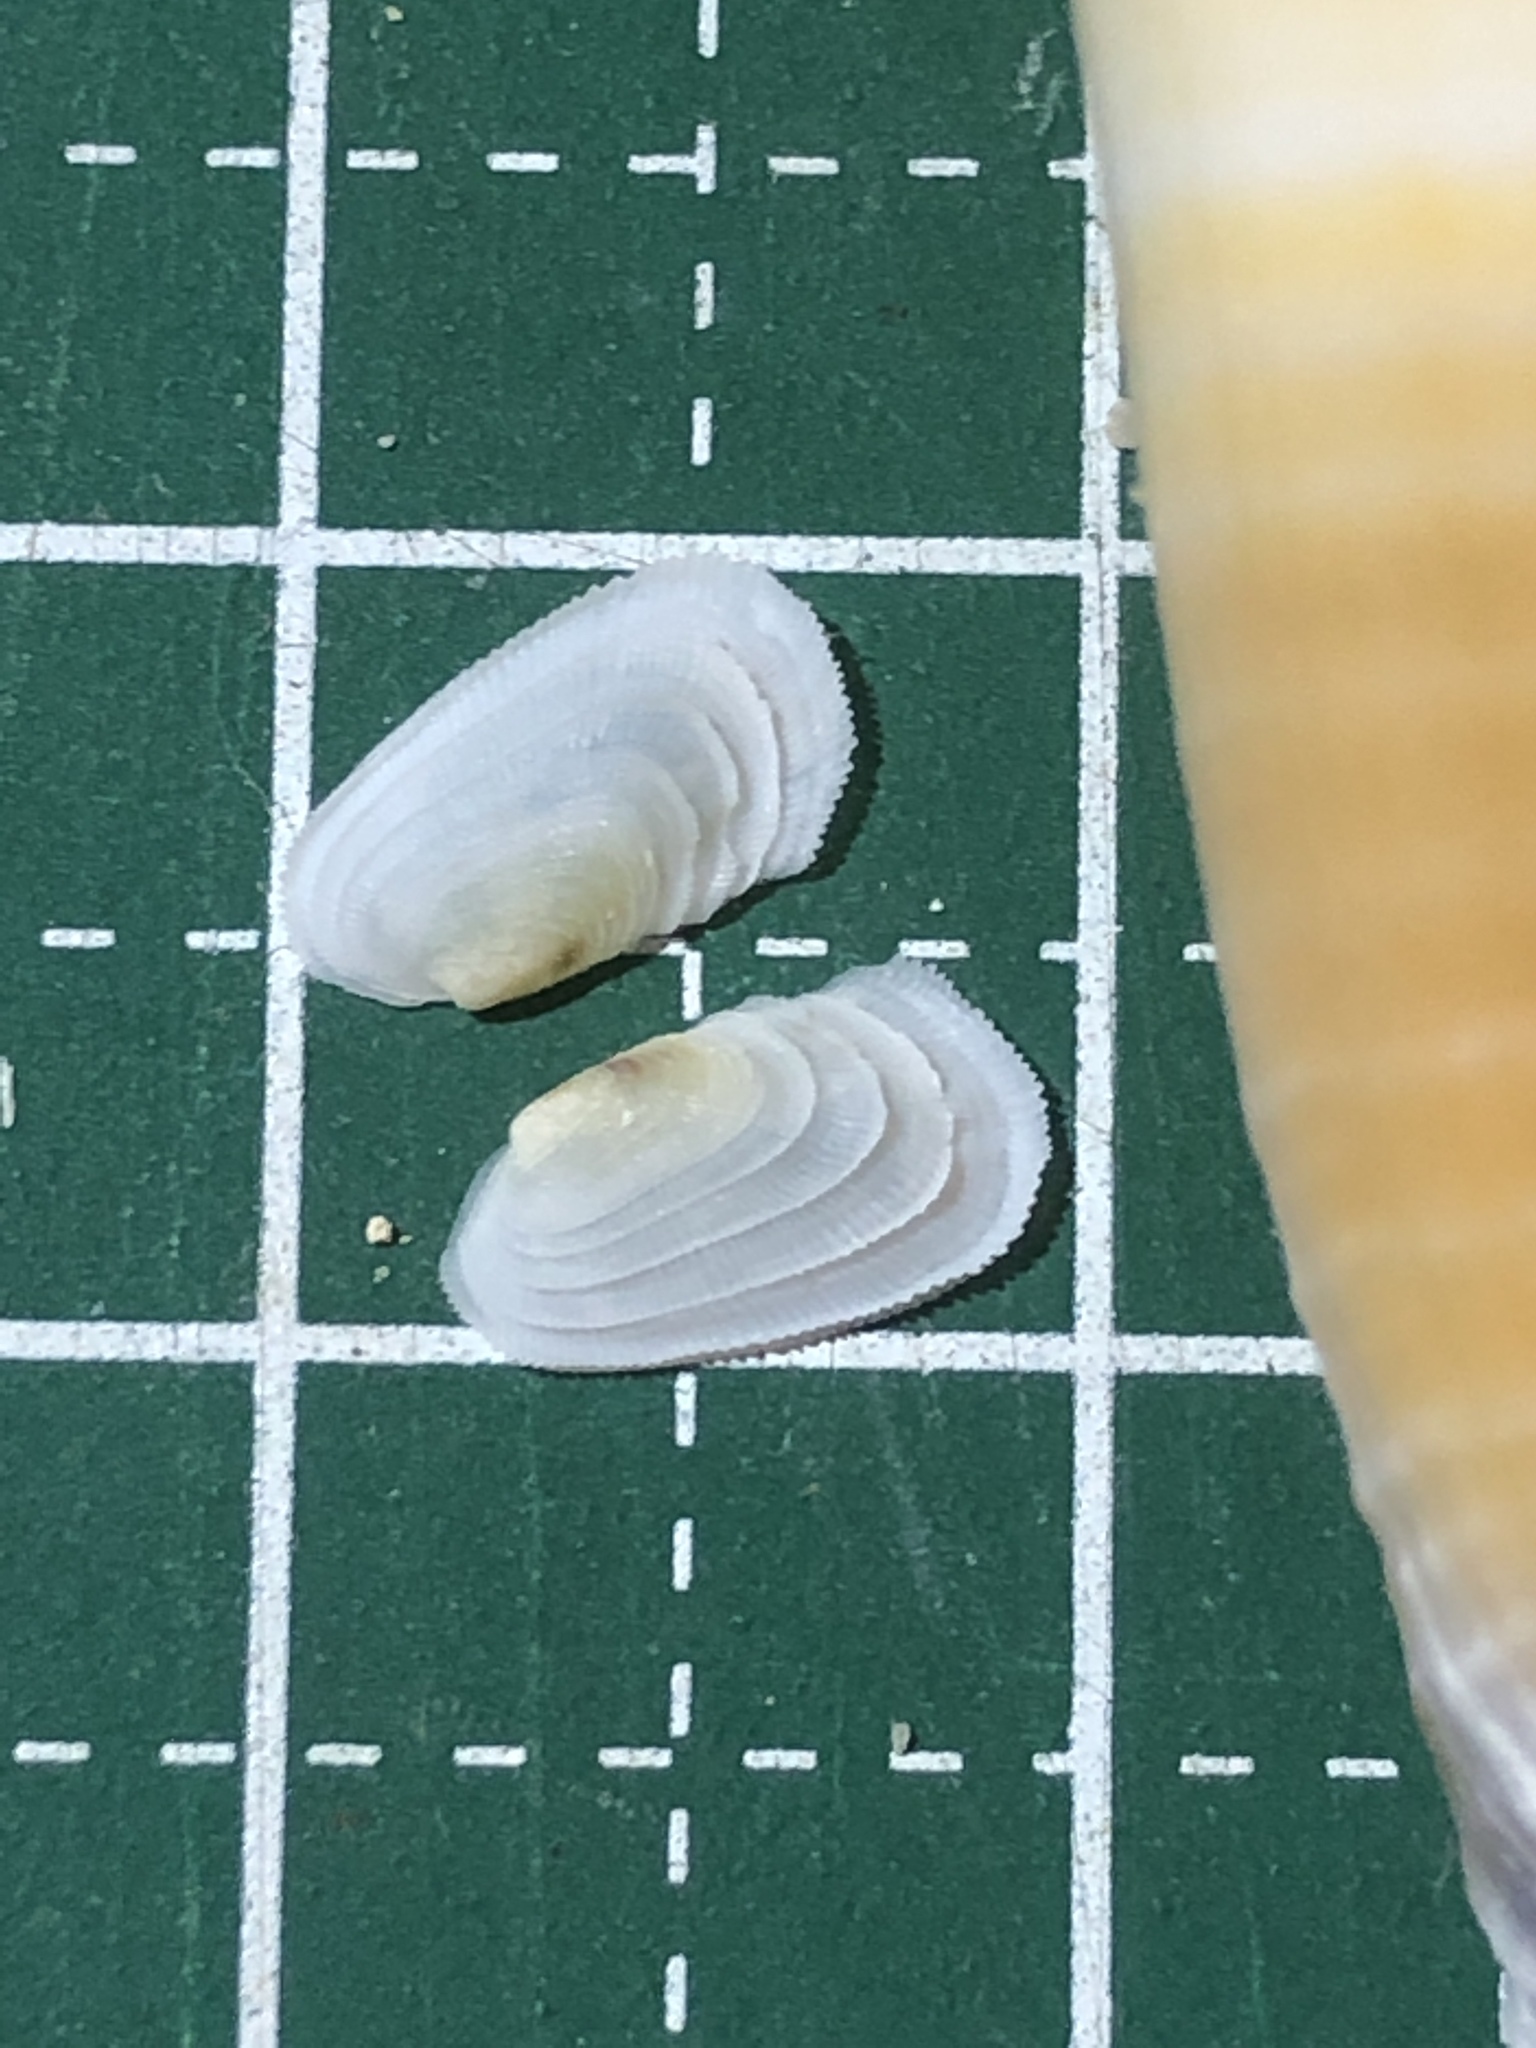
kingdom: Animalia
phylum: Mollusca
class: Bivalvia
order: Venerida
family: Veneridae
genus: Irus
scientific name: Irus irus
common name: Irus clam
